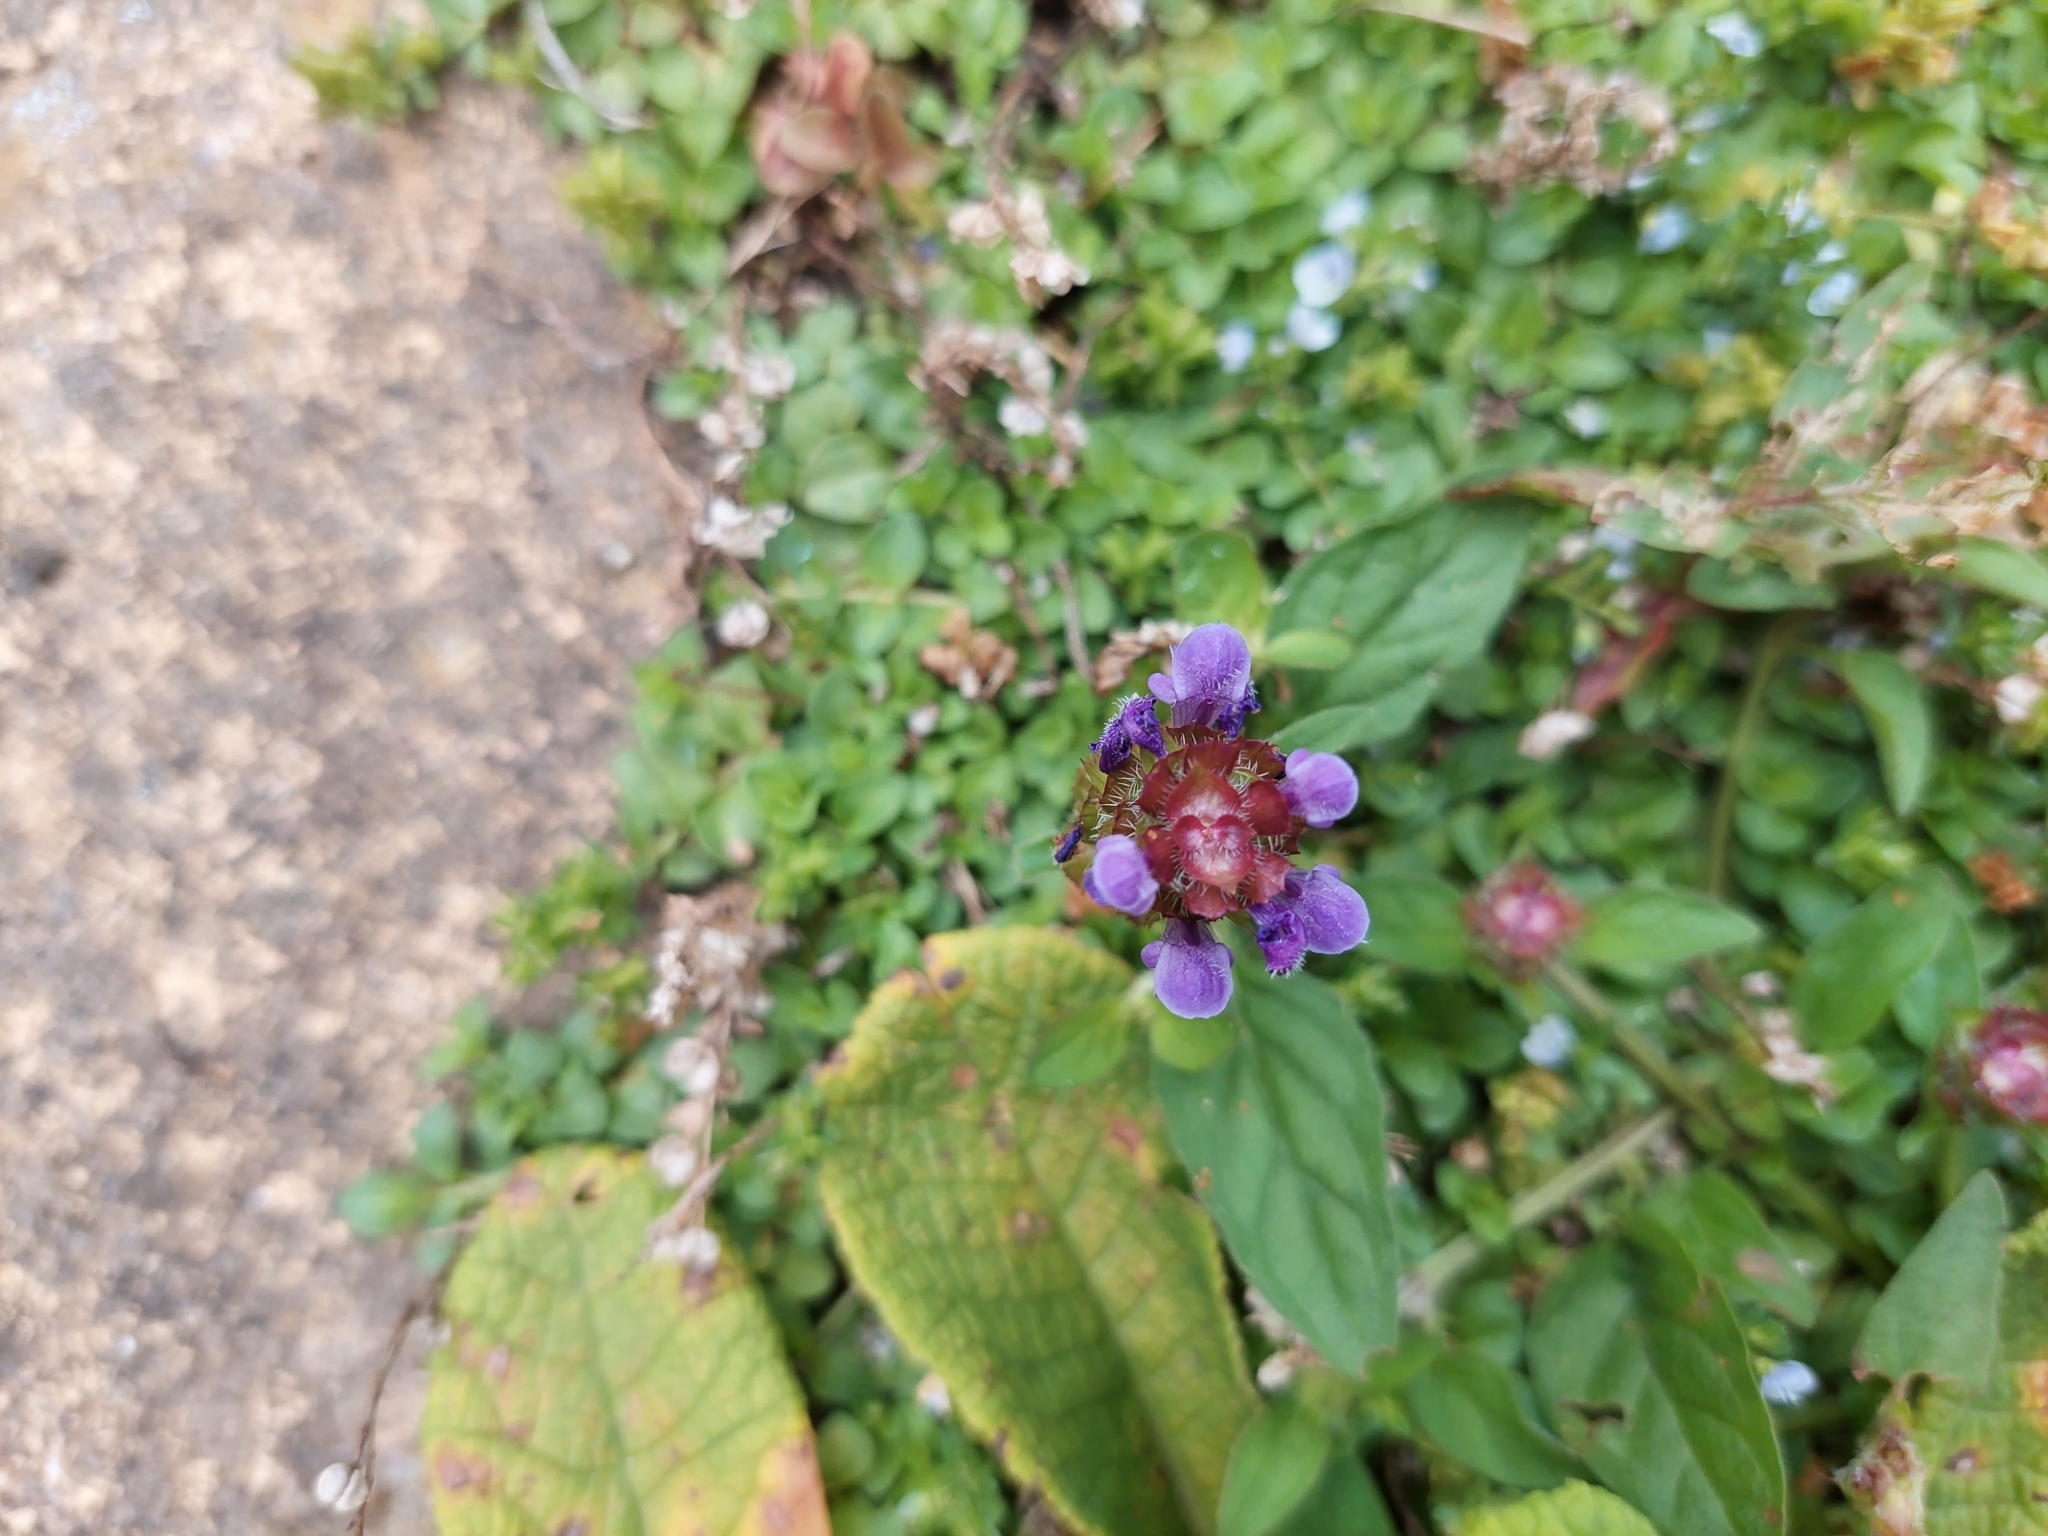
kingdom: Plantae
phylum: Tracheophyta
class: Magnoliopsida
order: Lamiales
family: Lamiaceae
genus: Prunella
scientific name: Prunella vulgaris
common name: Heal-all
